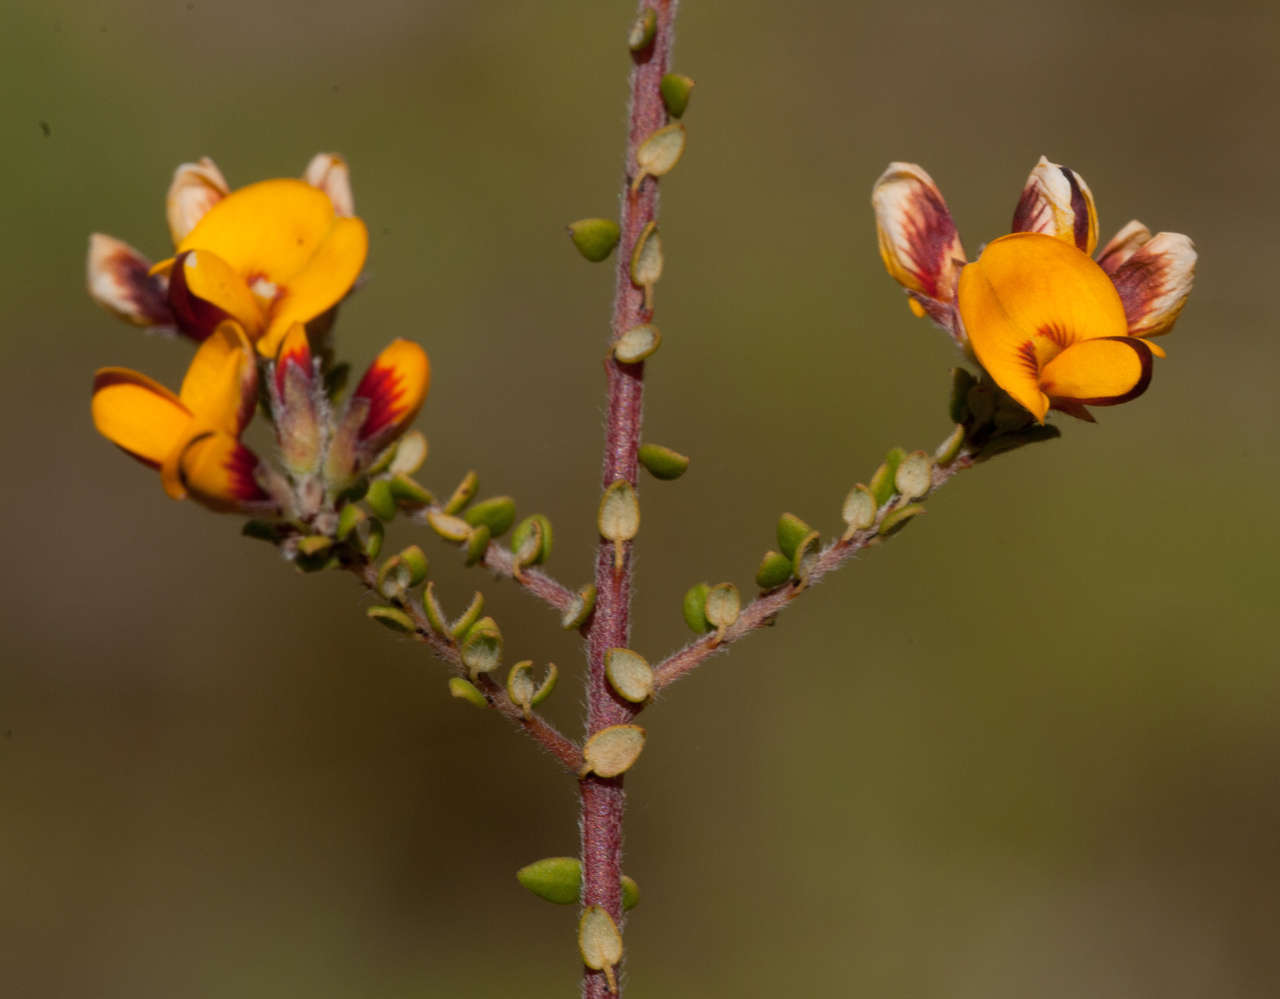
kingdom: Plantae
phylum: Tracheophyta
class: Magnoliopsida
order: Fabales
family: Fabaceae
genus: Pultenaea
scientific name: Pultenaea gunnii
